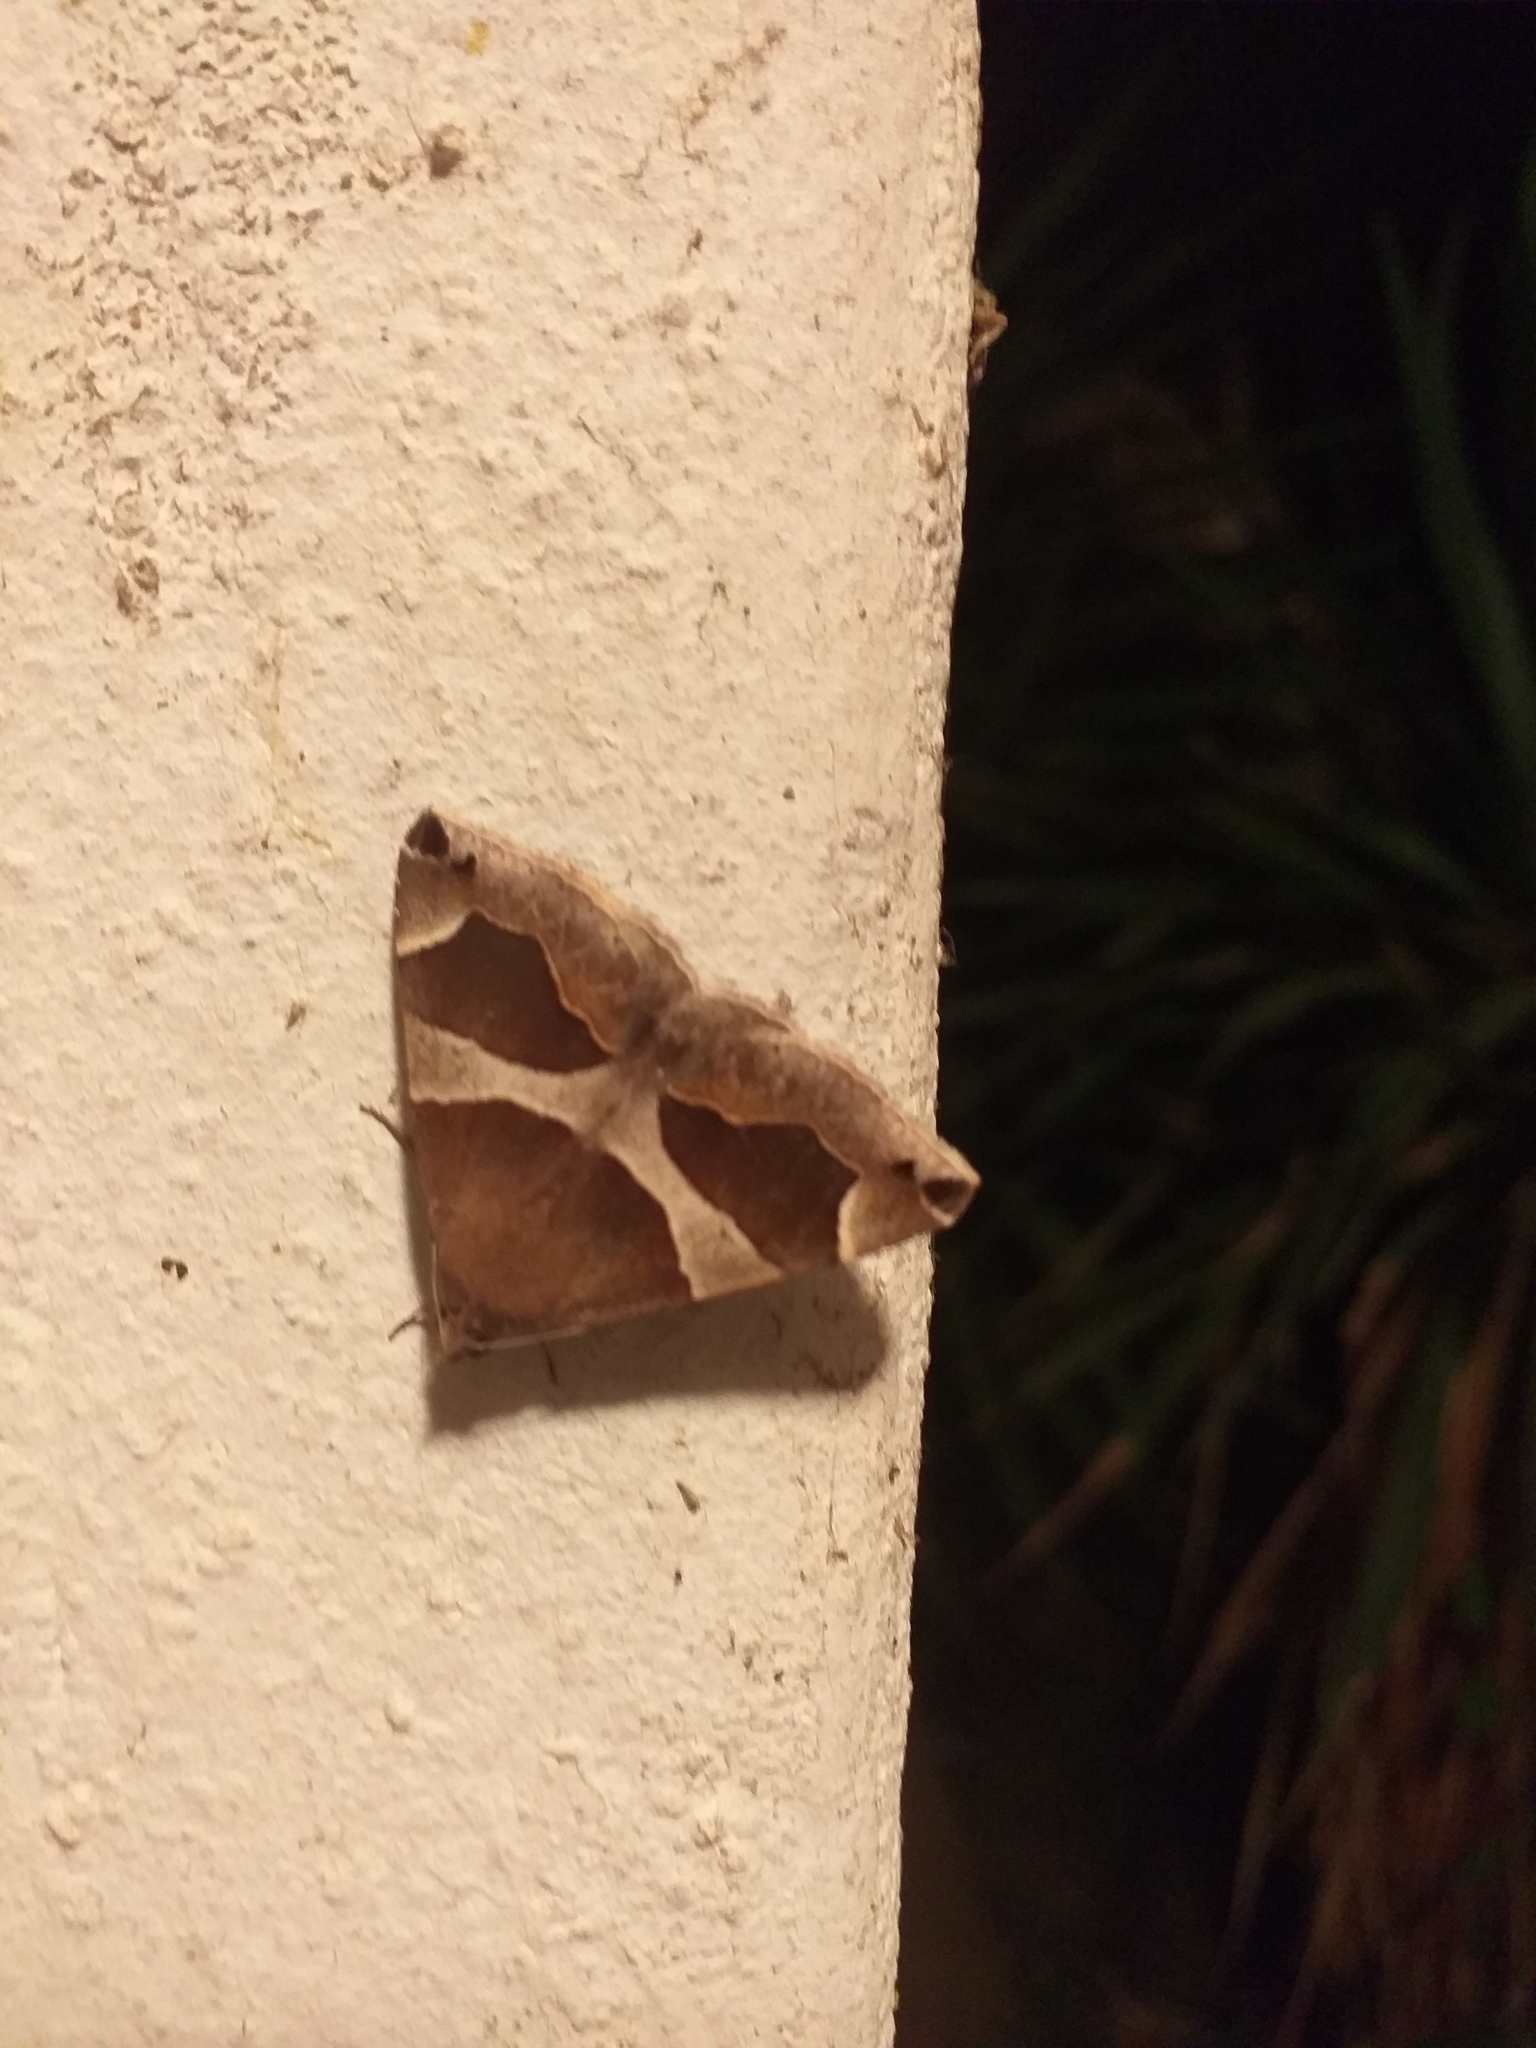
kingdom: Animalia
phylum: Arthropoda
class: Insecta
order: Lepidoptera
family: Erebidae
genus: Dysgonia
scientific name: Dysgonia algira
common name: Passenger
